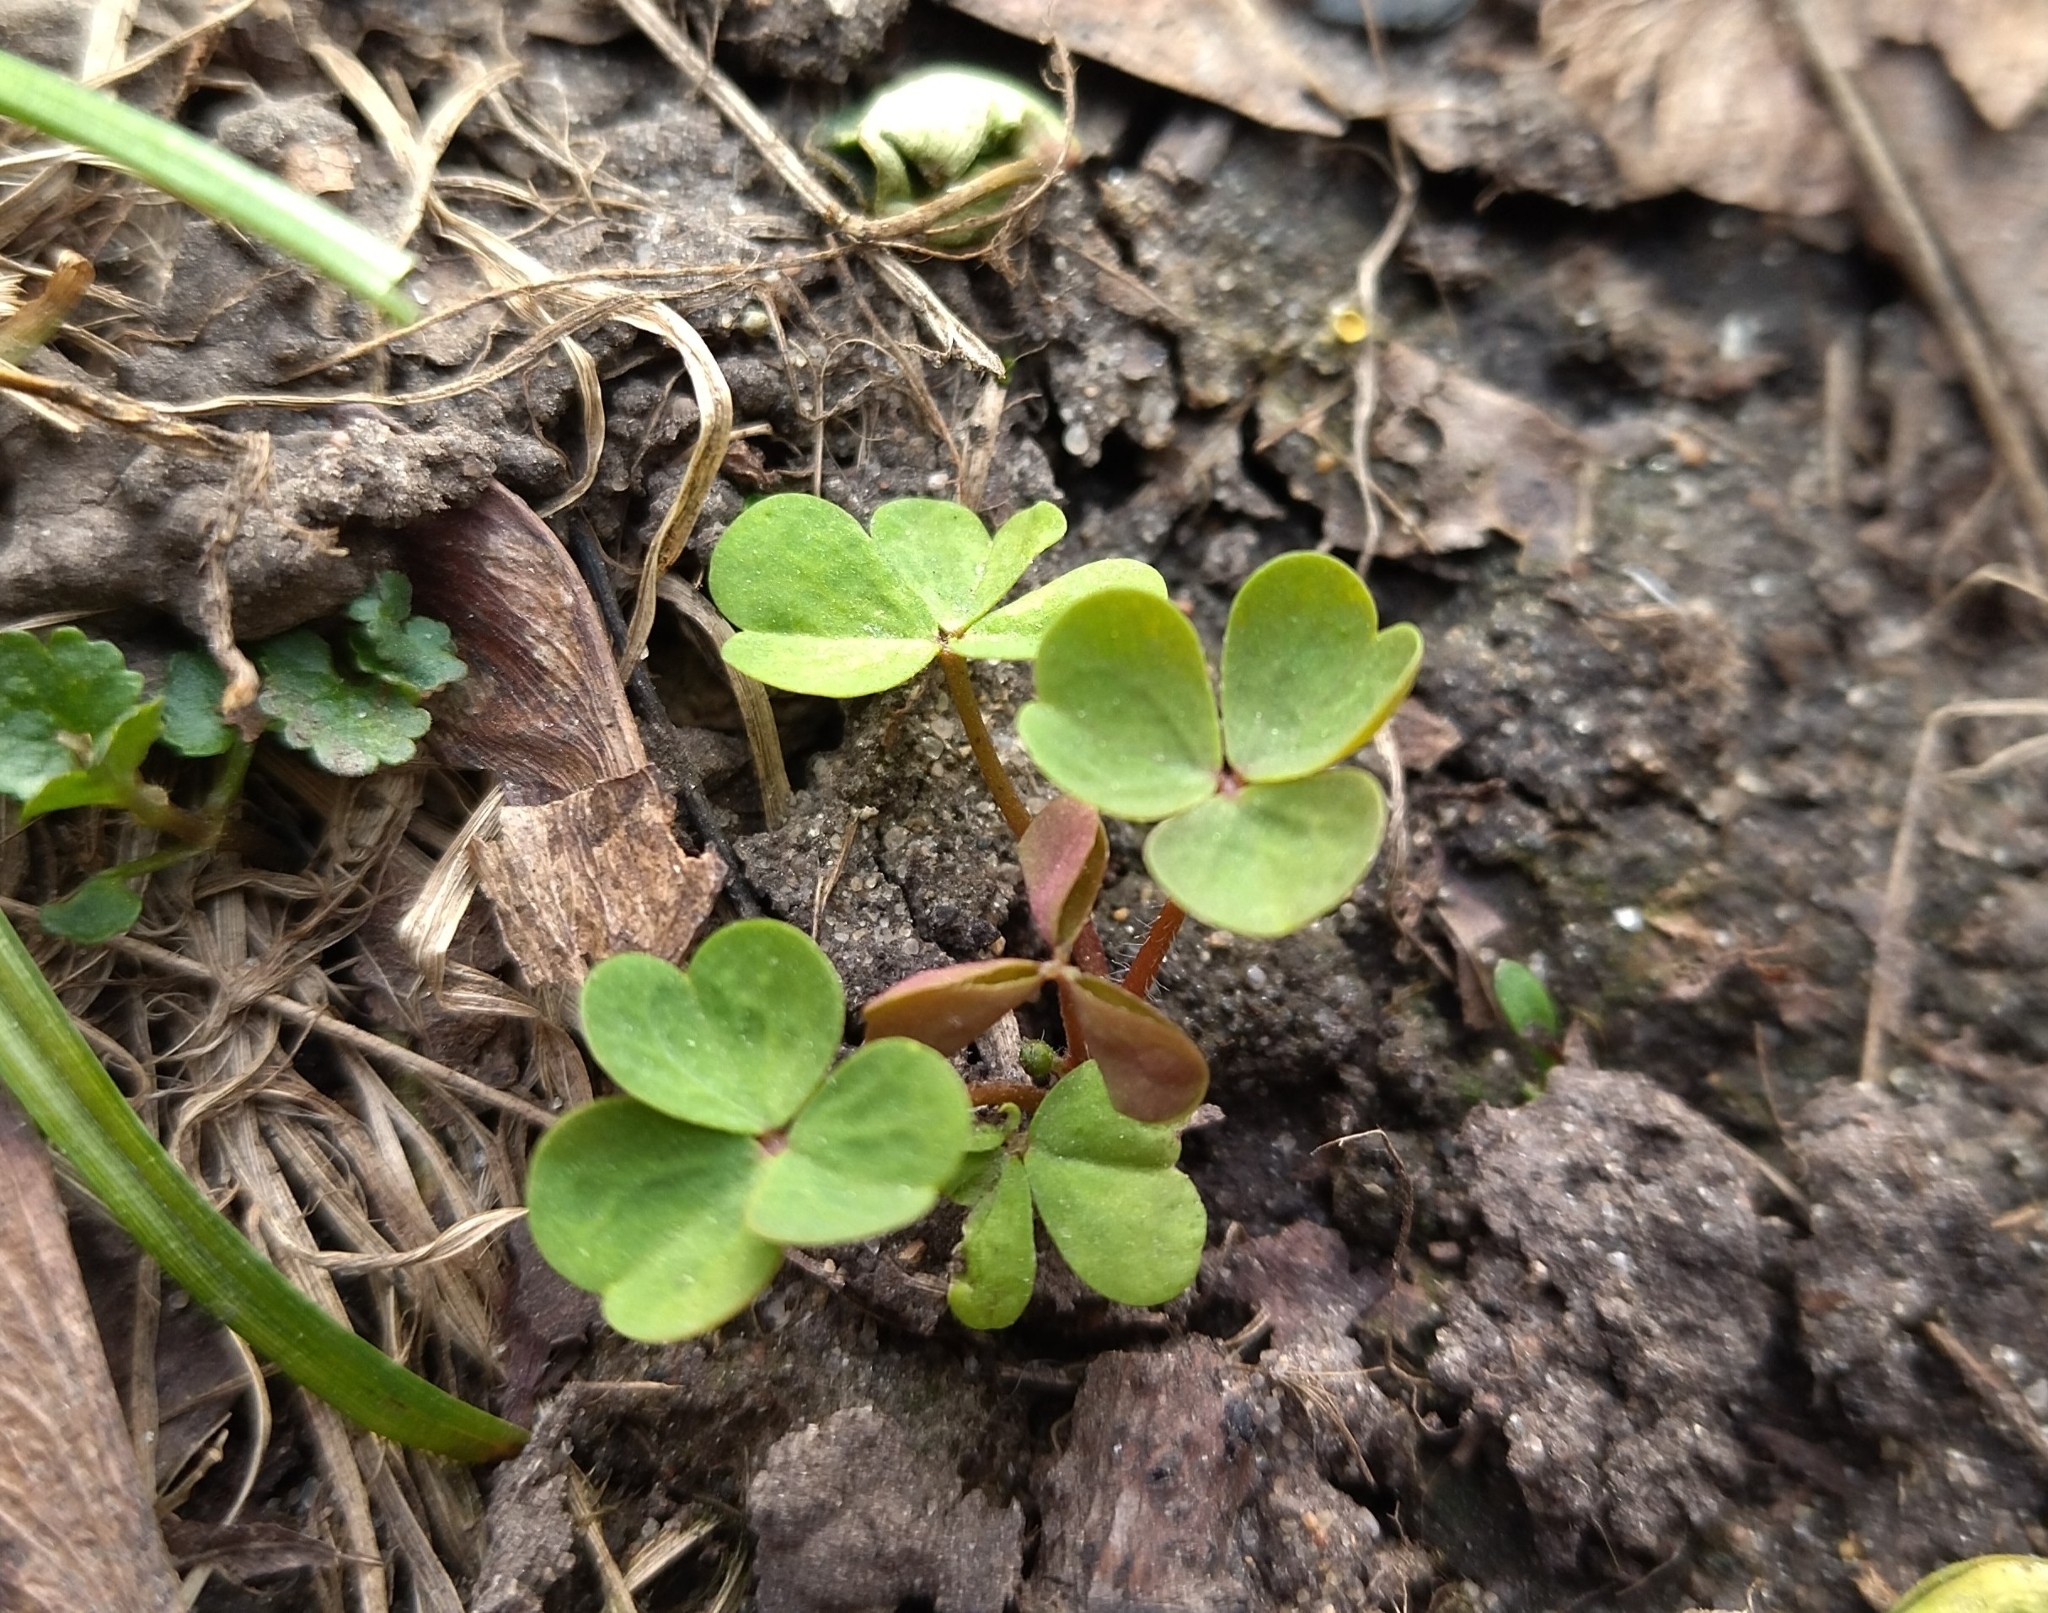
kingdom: Plantae
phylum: Tracheophyta
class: Magnoliopsida
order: Oxalidales
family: Oxalidaceae
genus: Oxalis
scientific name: Oxalis stricta
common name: Upright yellow-sorrel
